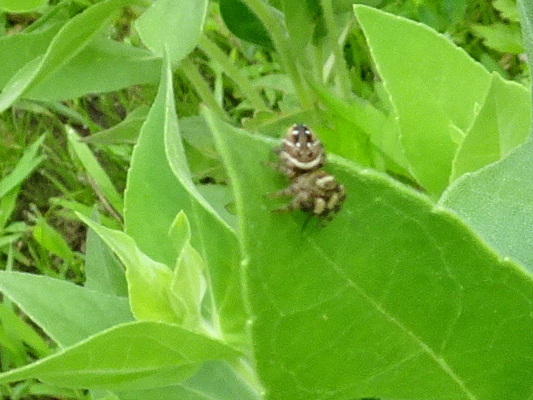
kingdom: Animalia
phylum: Arthropoda
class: Arachnida
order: Araneae
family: Salticidae
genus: Phidippus
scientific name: Phidippus clarus
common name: Brilliant jumping spider
